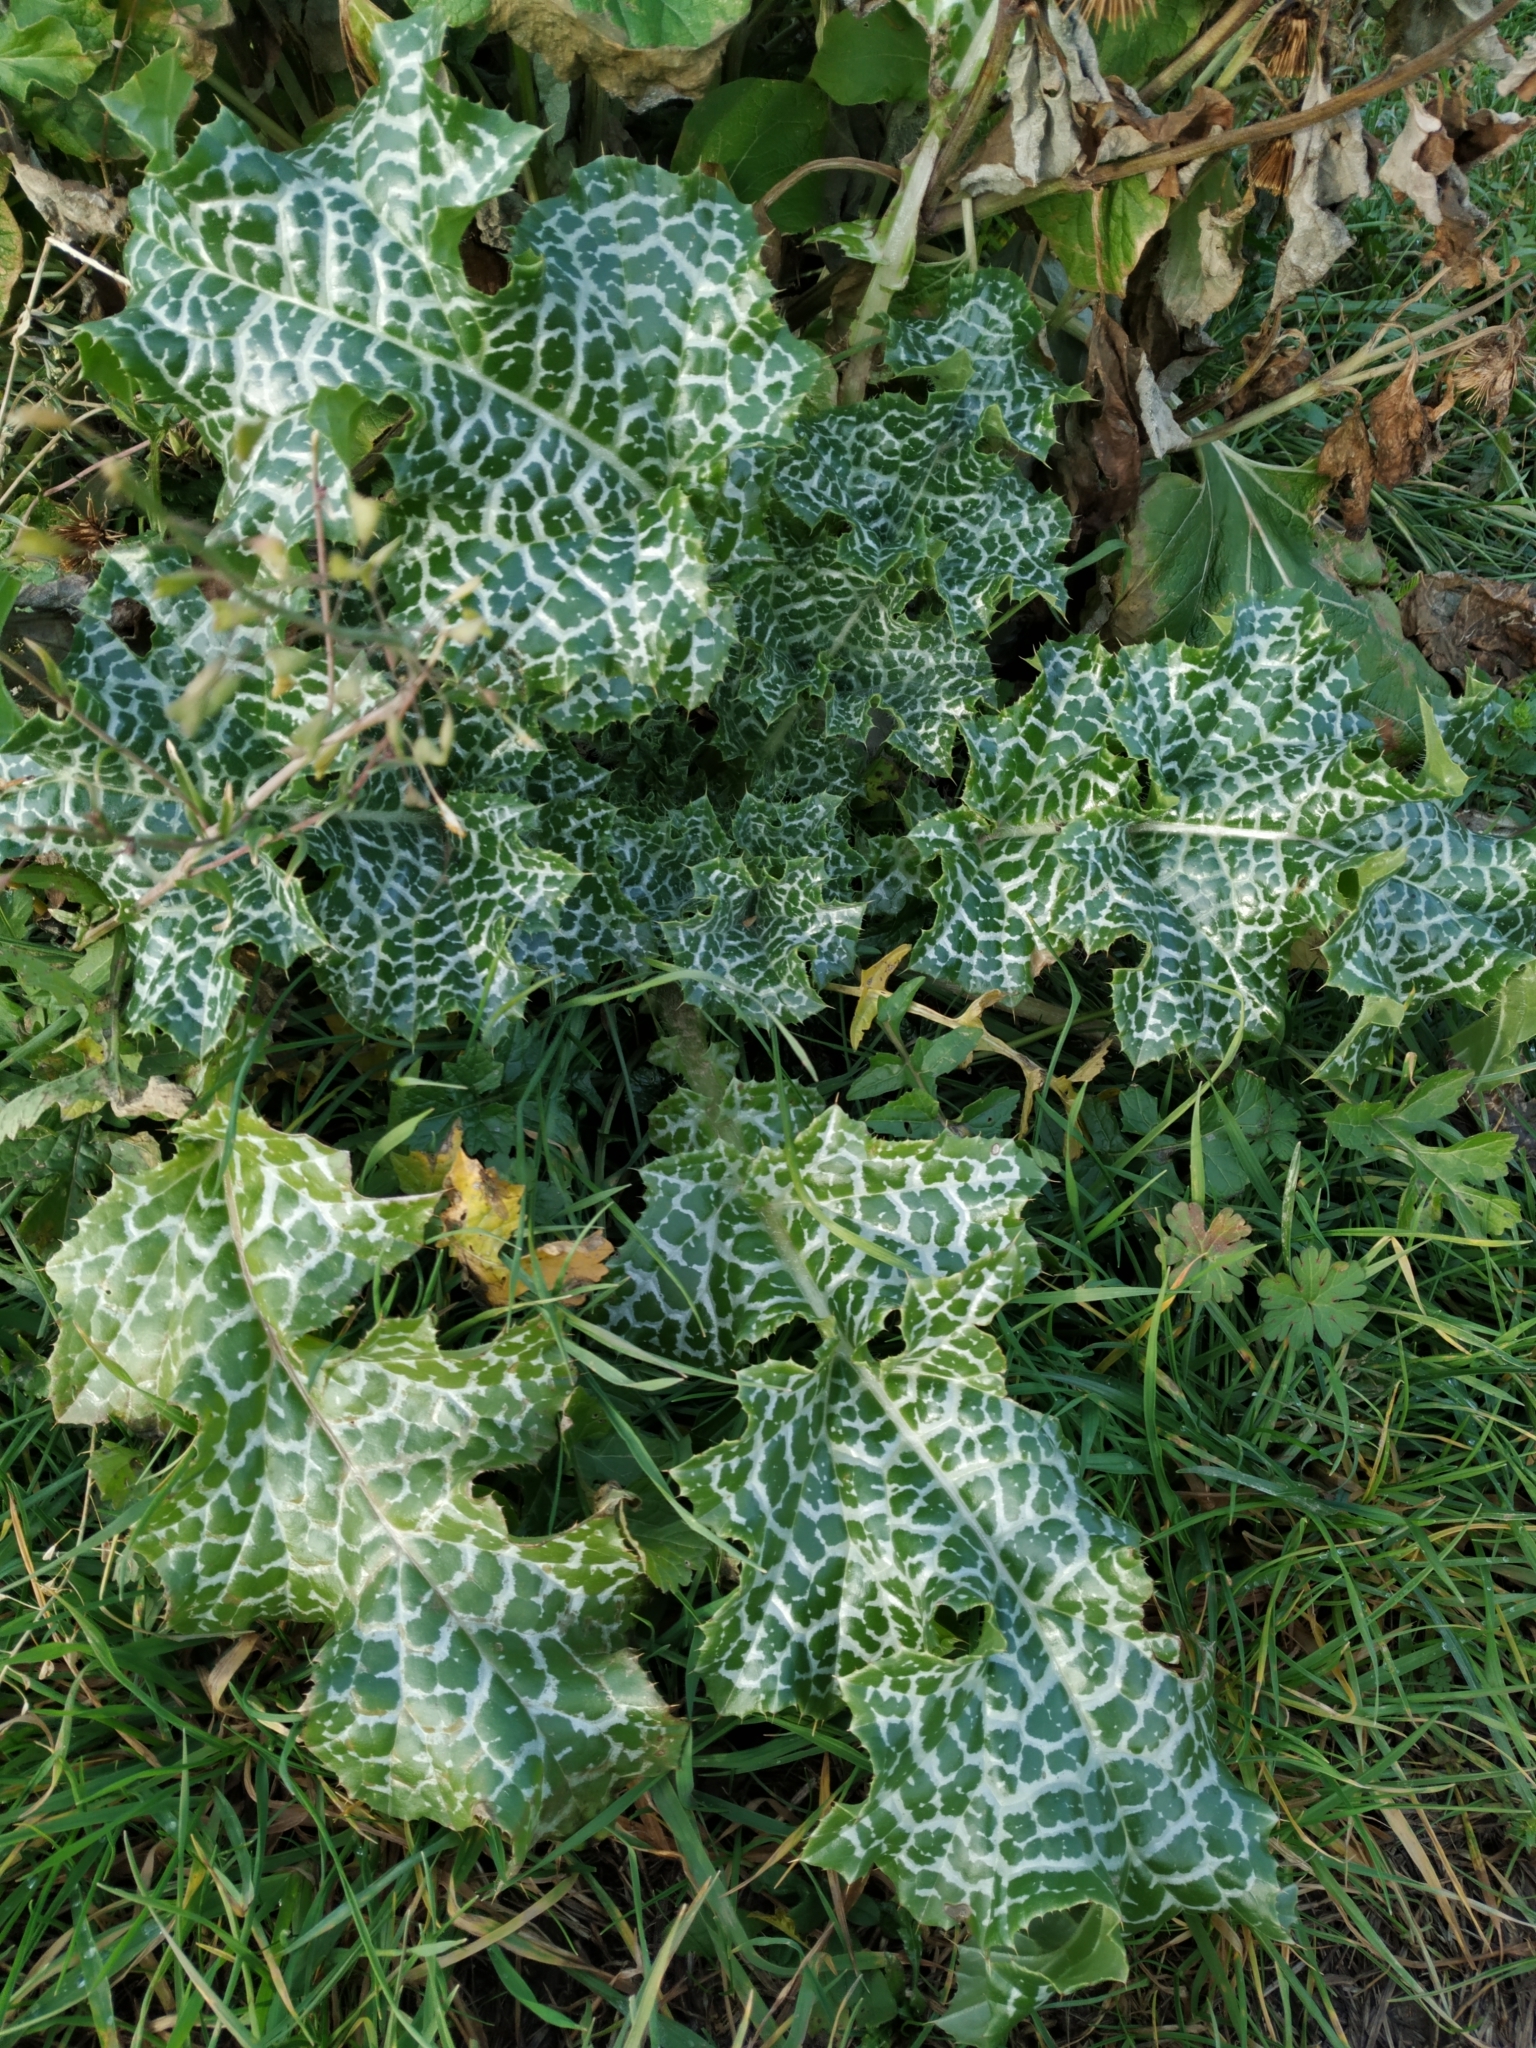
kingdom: Plantae
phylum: Tracheophyta
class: Magnoliopsida
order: Asterales
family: Asteraceae
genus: Silybum
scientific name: Silybum marianum
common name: Milk thistle
